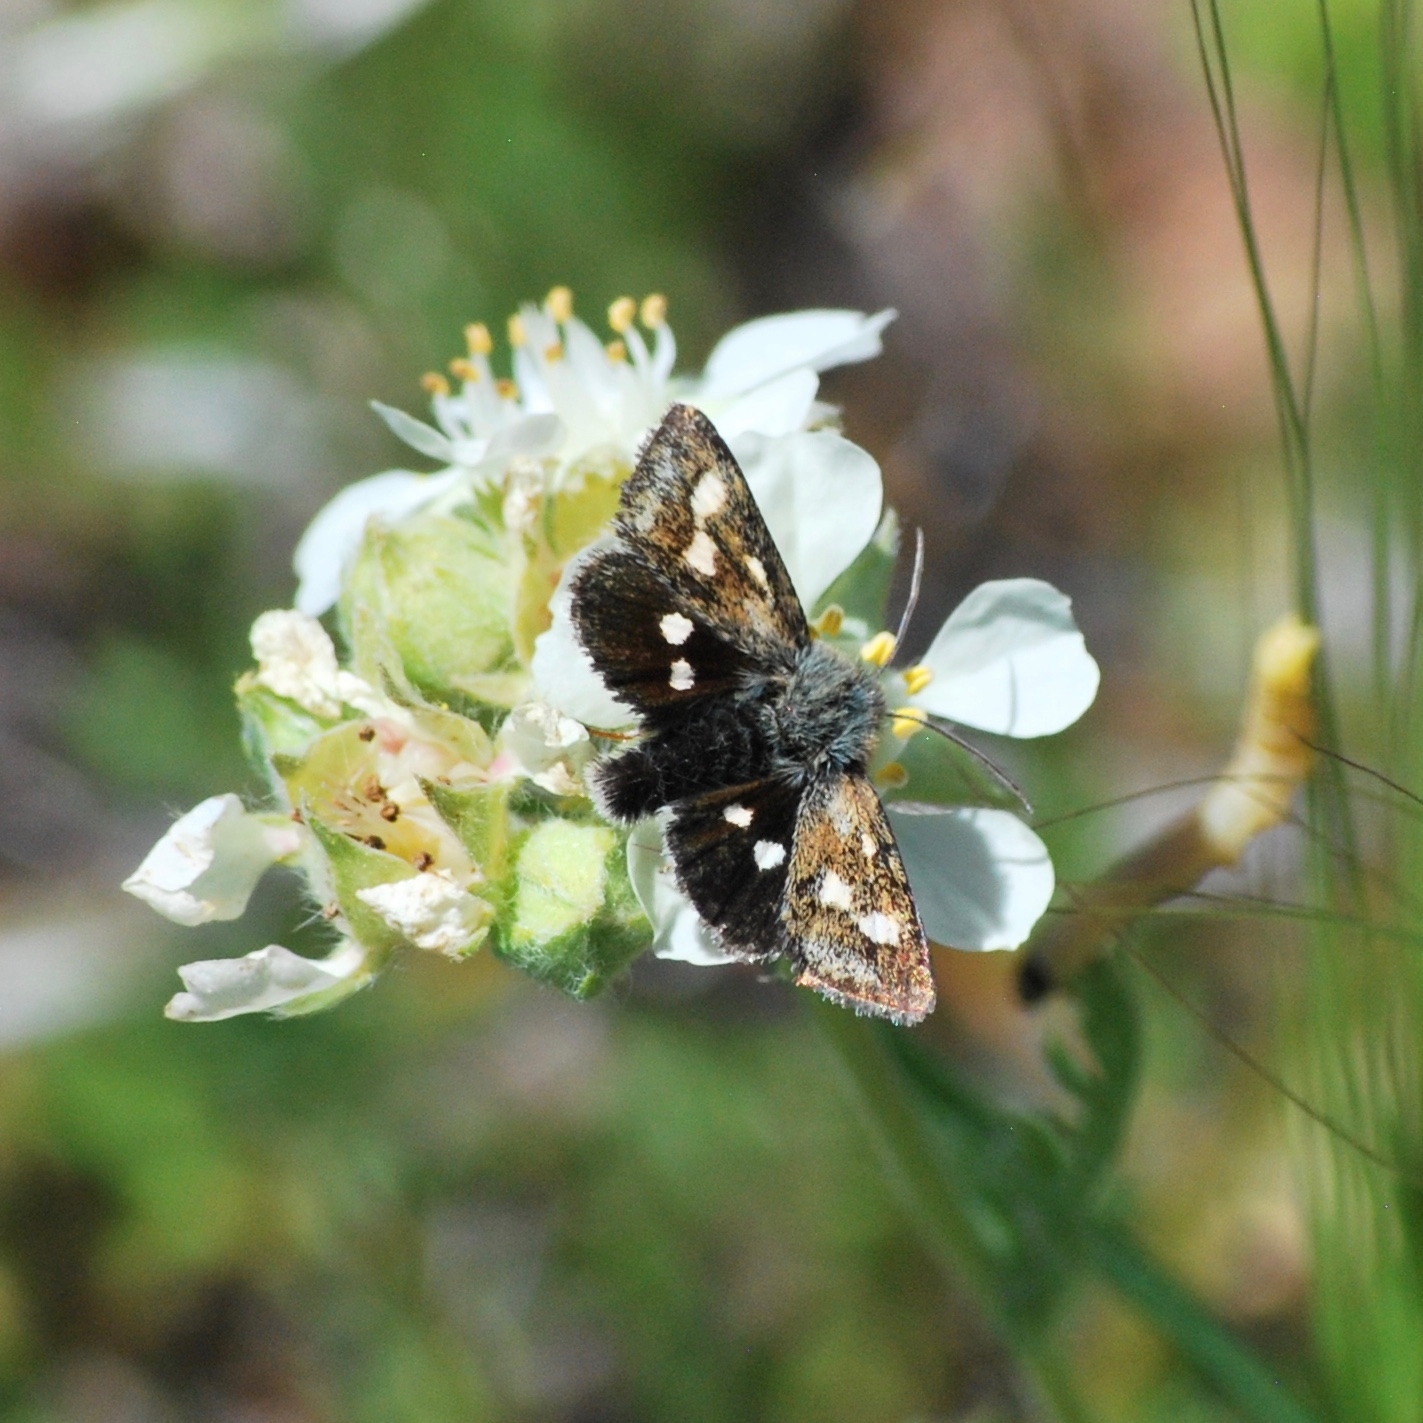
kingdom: Animalia
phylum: Arthropoda
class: Insecta
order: Lepidoptera
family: Noctuidae
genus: Heliothodes
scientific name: Heliothodes diminutiva
